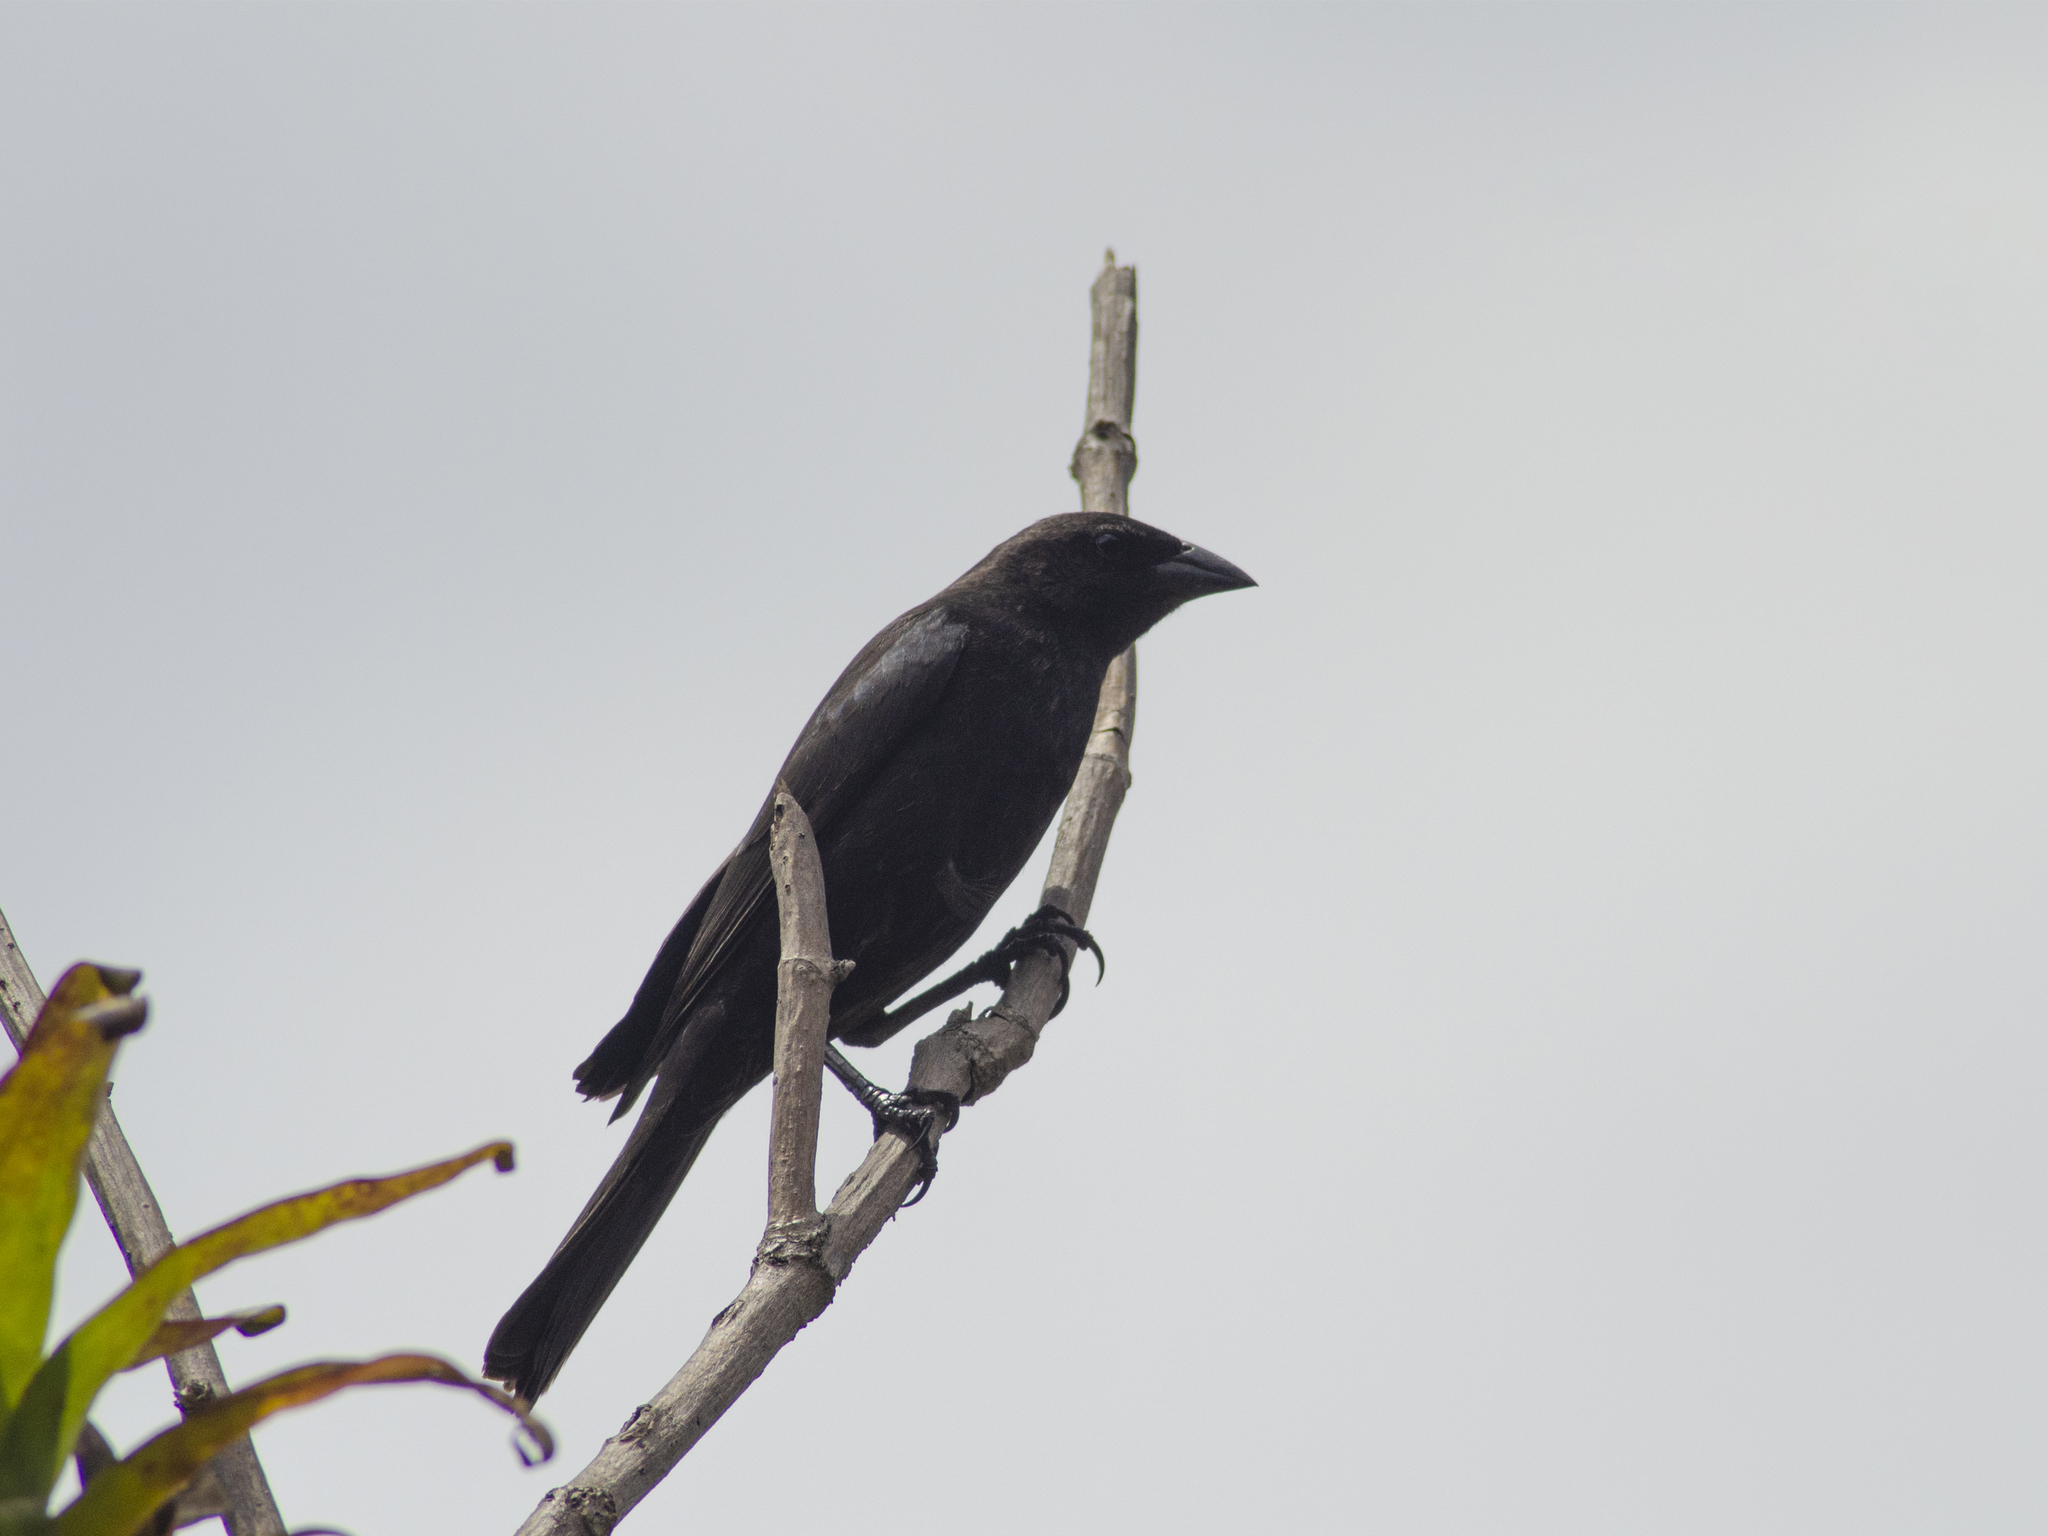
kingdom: Animalia
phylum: Chordata
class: Aves
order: Passeriformes
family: Icteridae
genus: Molothrus
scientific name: Molothrus bonariensis
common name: Shiny cowbird
